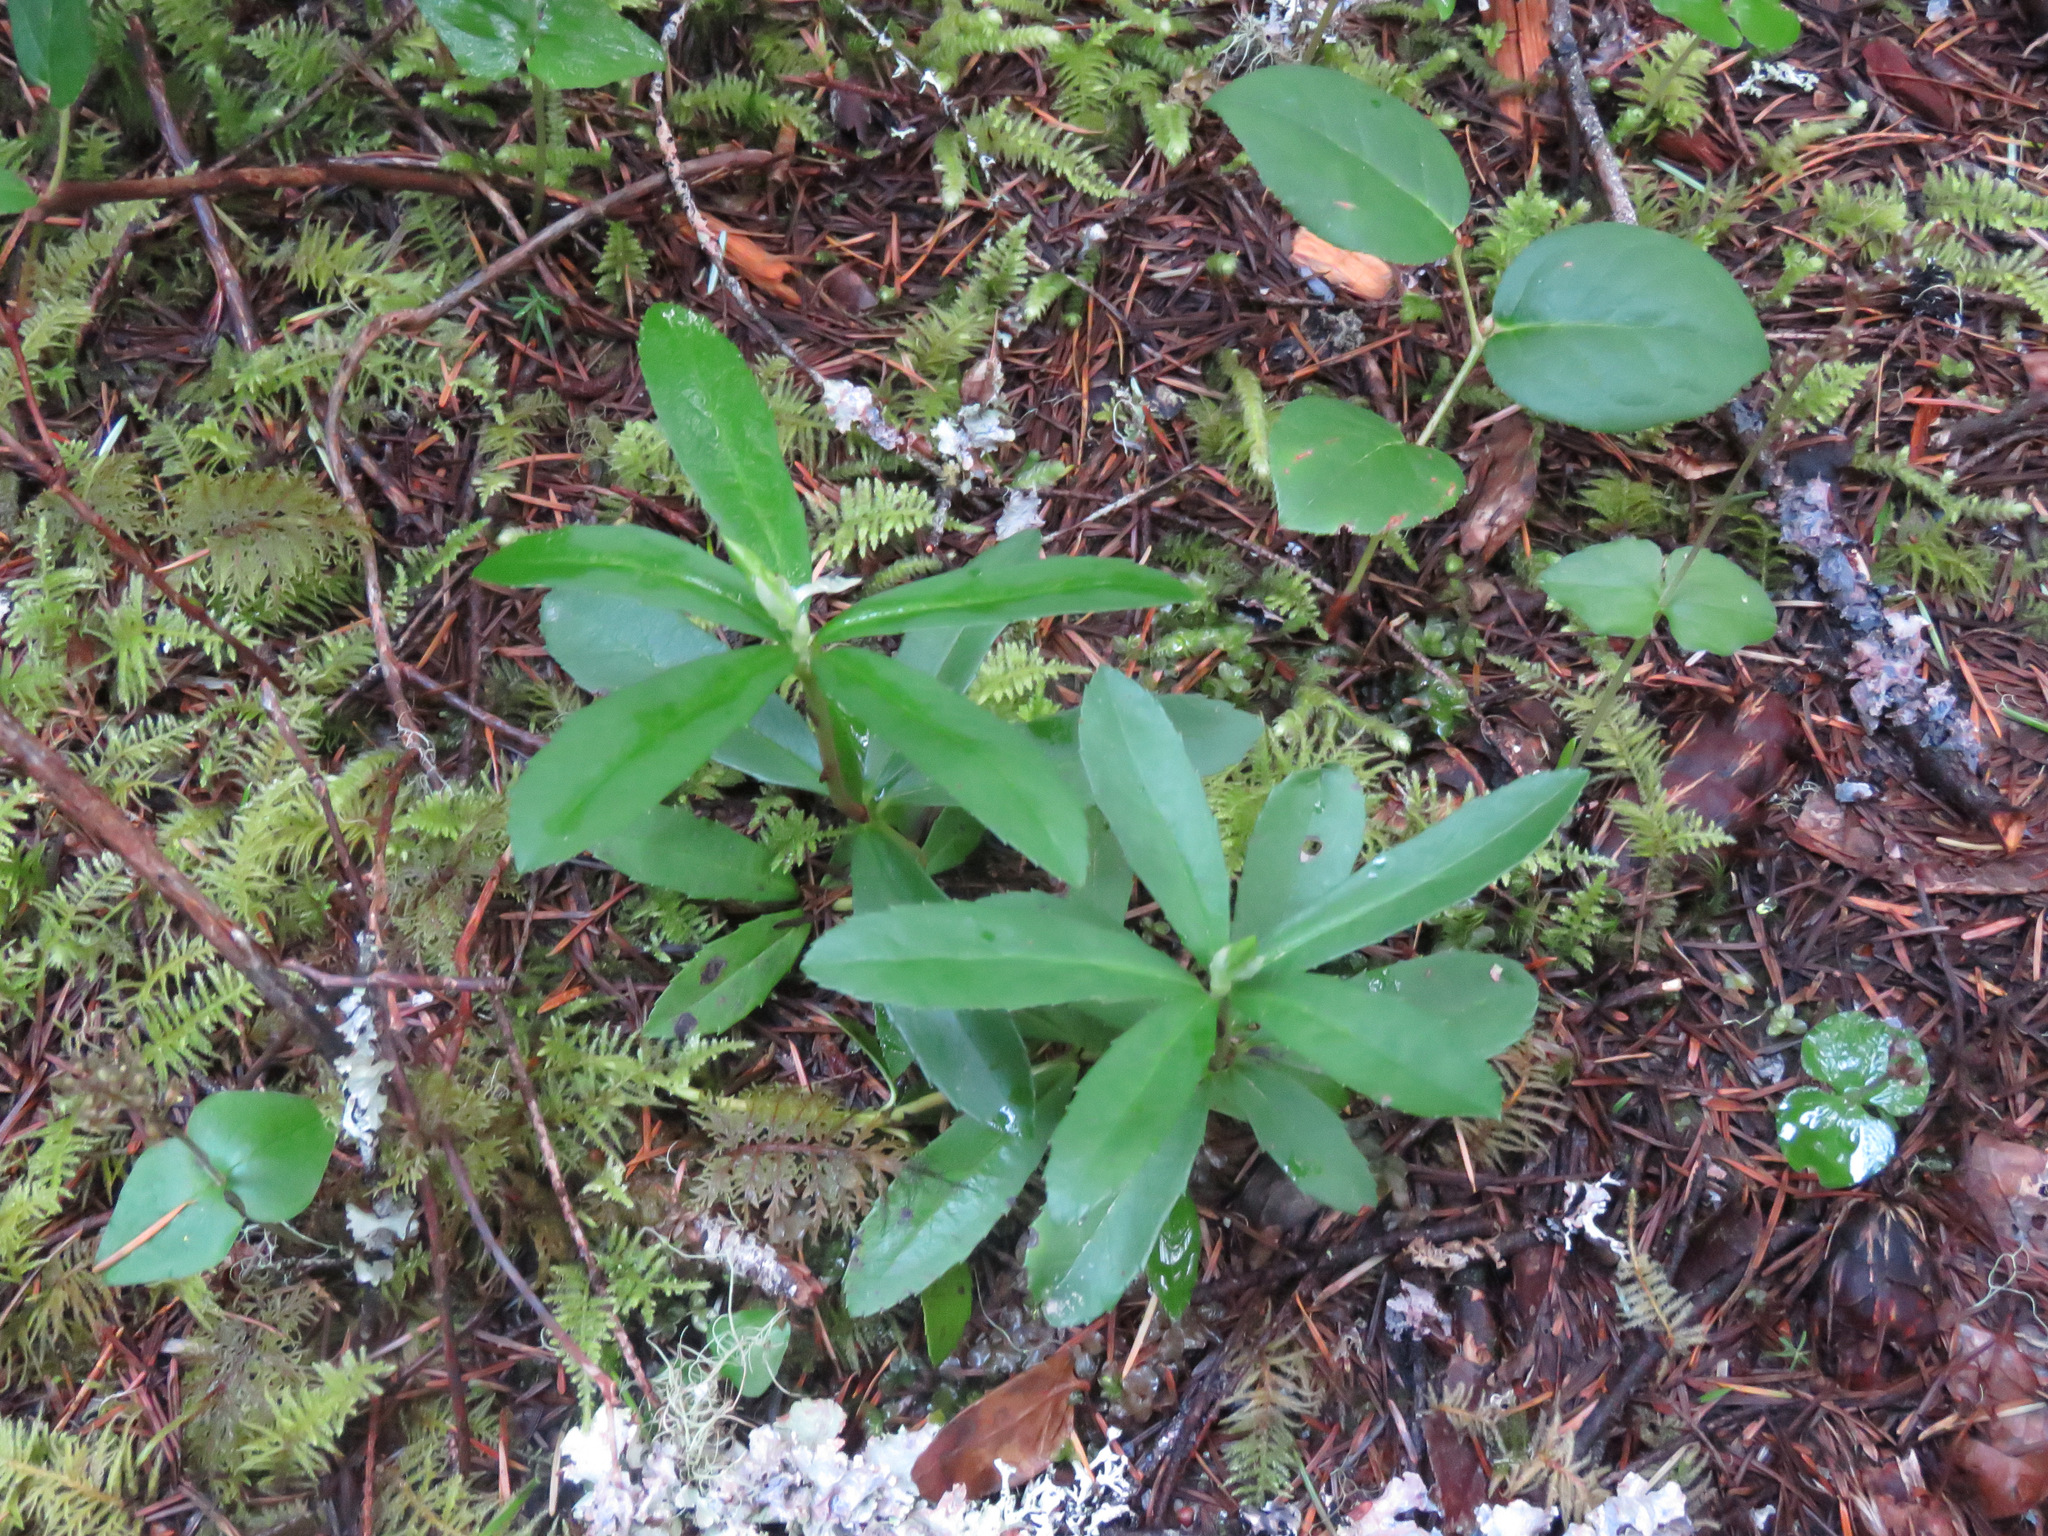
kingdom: Plantae
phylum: Tracheophyta
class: Magnoliopsida
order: Ericales
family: Ericaceae
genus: Chimaphila
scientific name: Chimaphila umbellata
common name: Pipsissewa
